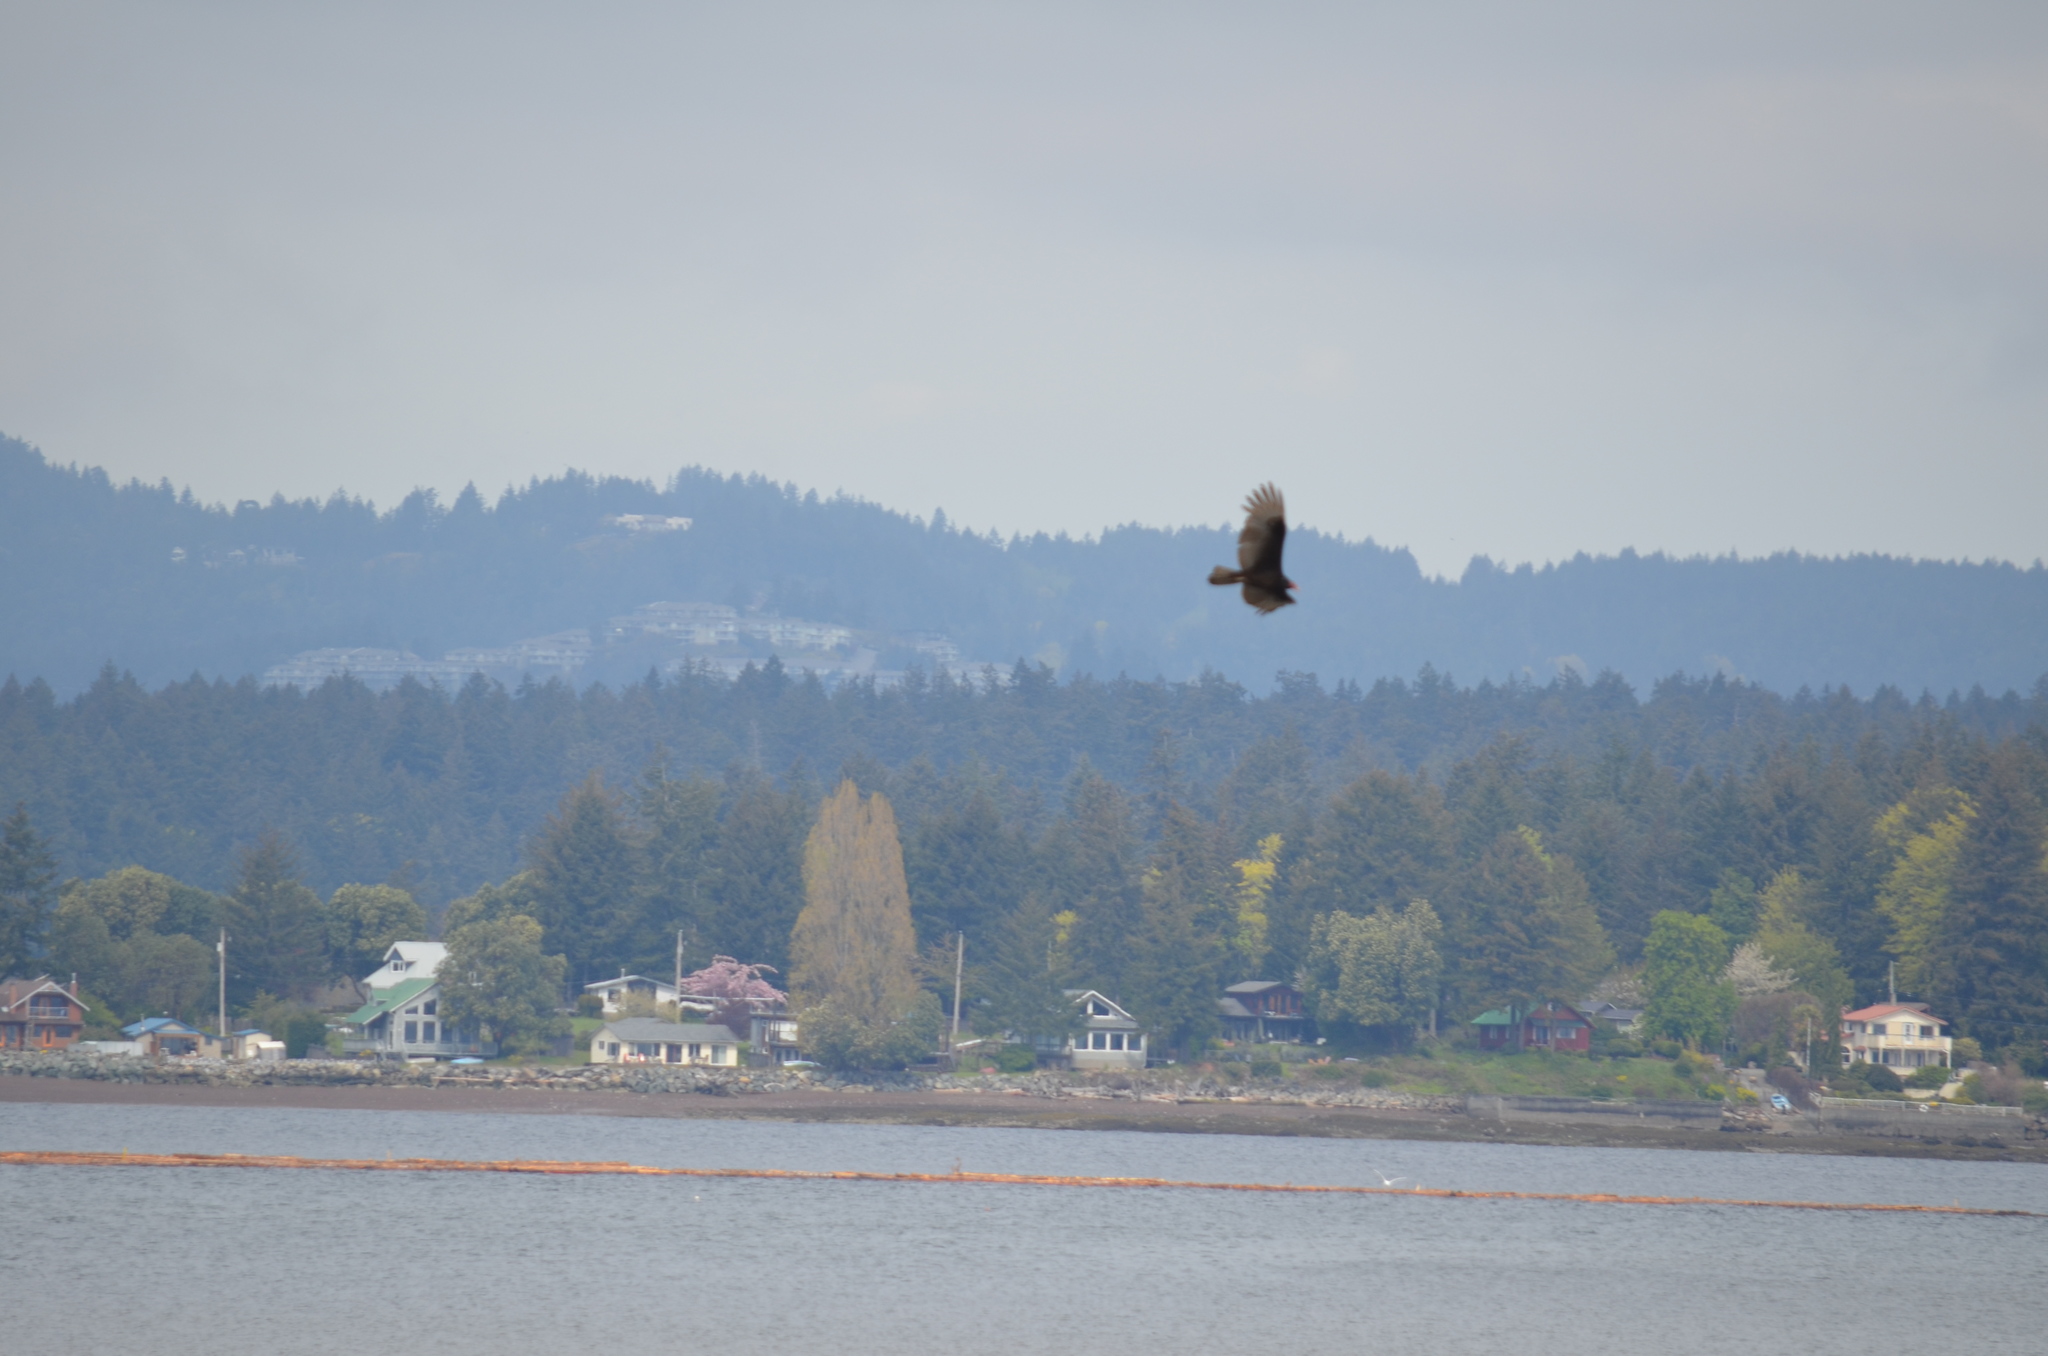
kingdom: Animalia
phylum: Chordata
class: Aves
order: Accipitriformes
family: Cathartidae
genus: Cathartes
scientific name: Cathartes aura
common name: Turkey vulture
